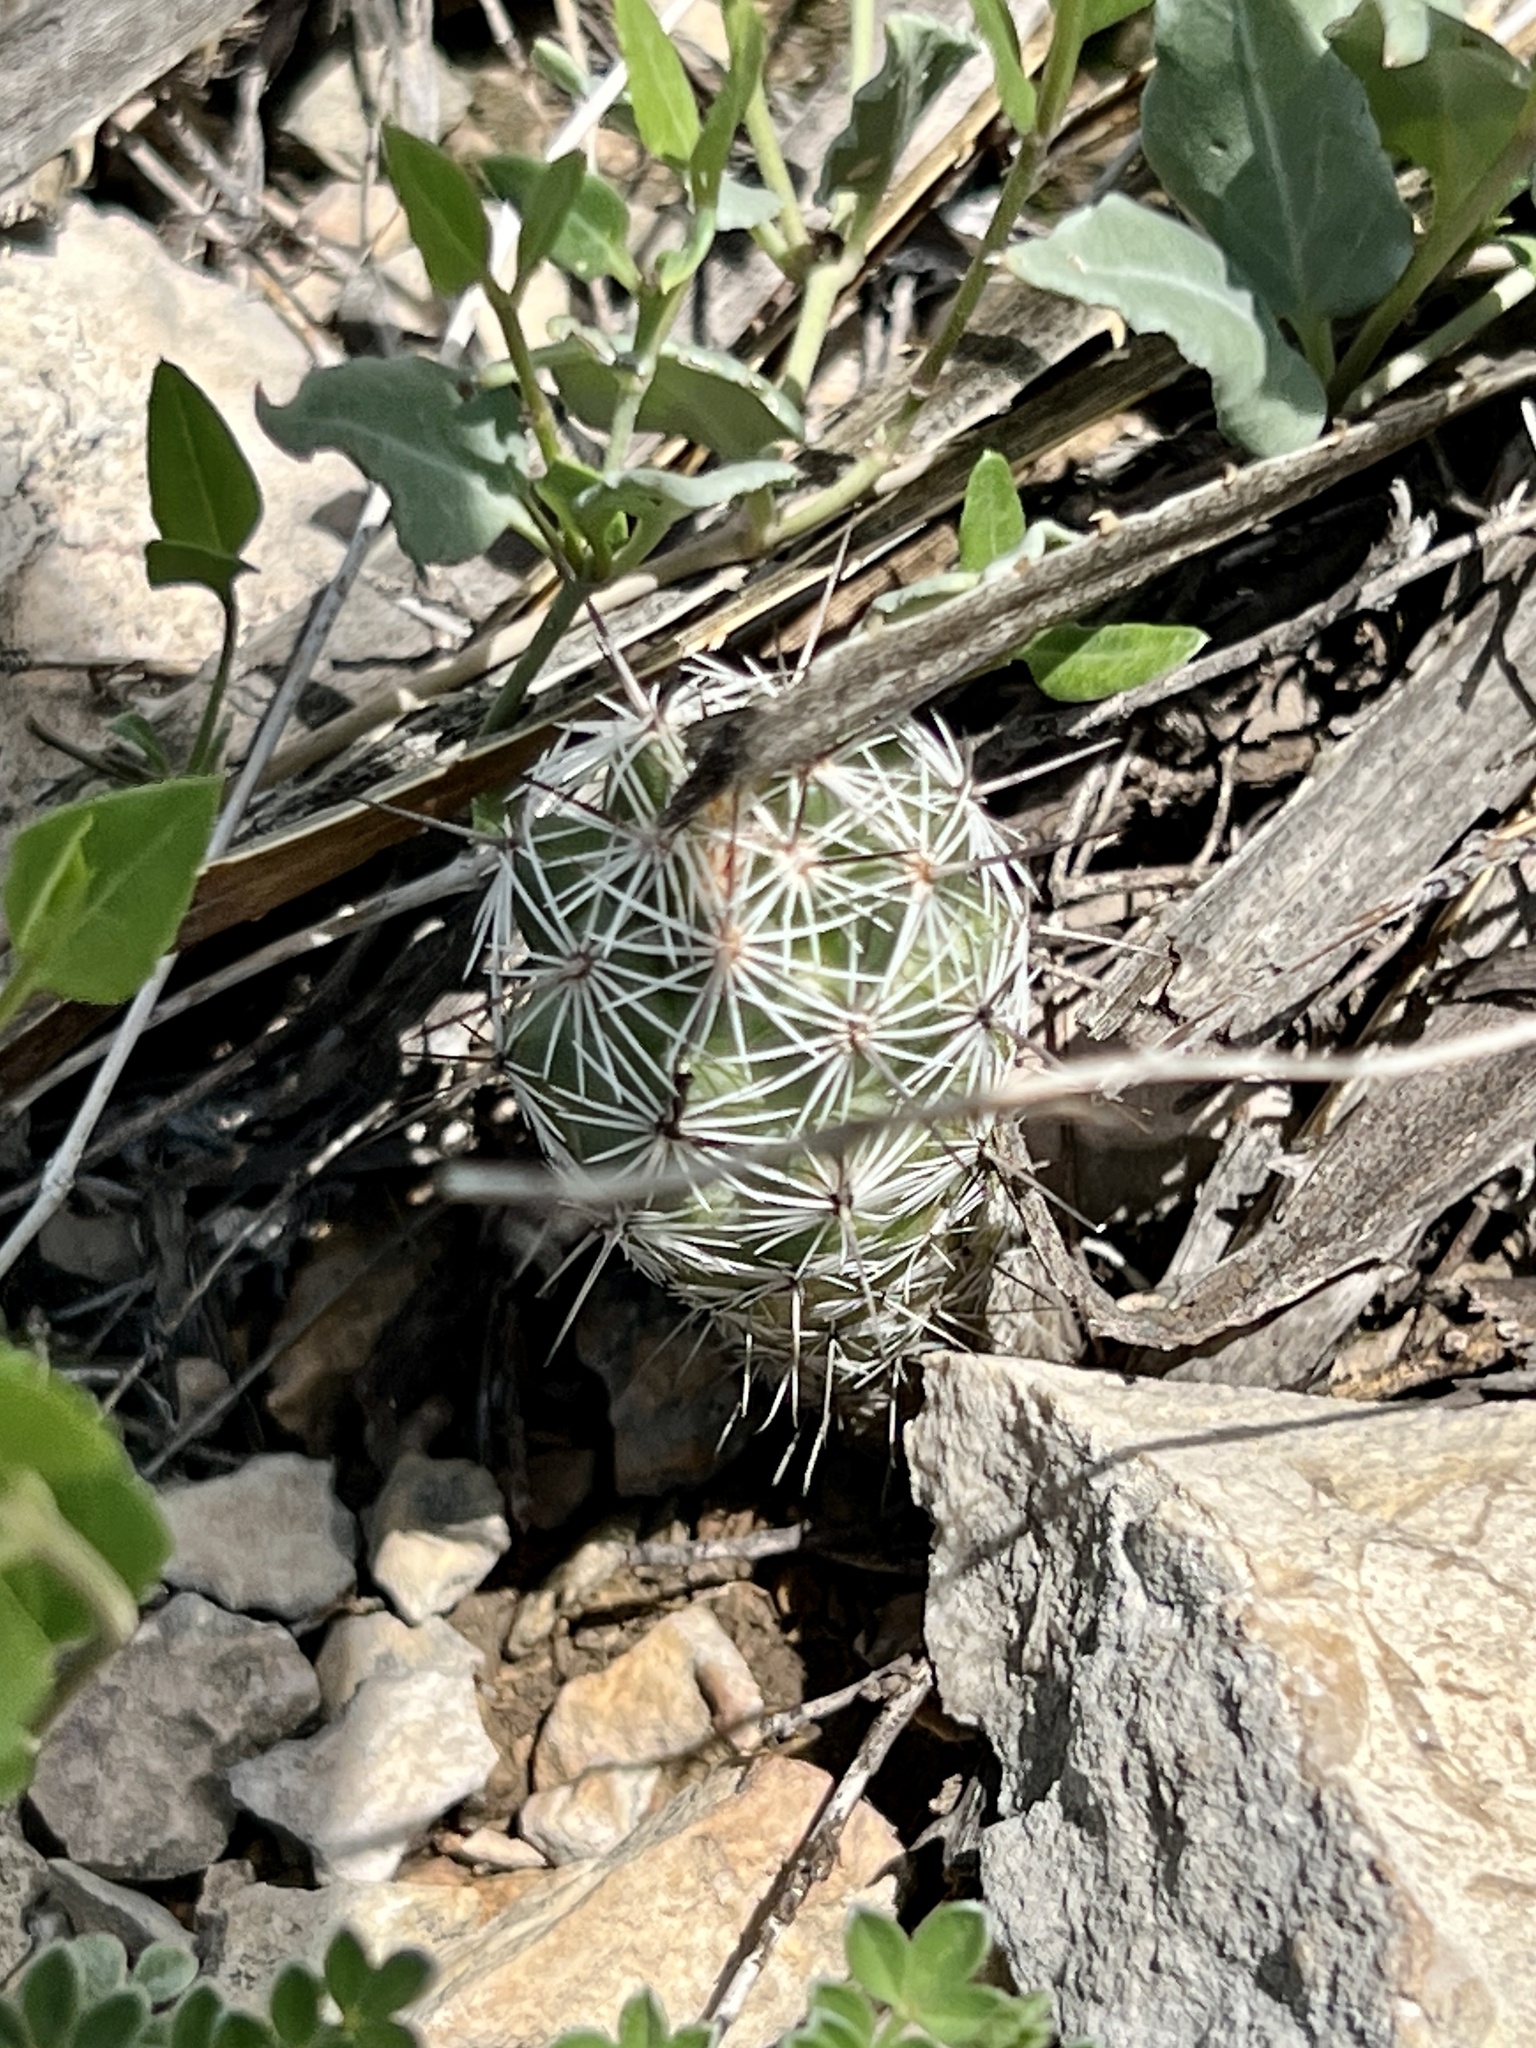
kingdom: Plantae
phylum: Tracheophyta
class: Magnoliopsida
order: Caryophyllales
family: Cactaceae
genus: Cochemiea
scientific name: Cochemiea conoidea
